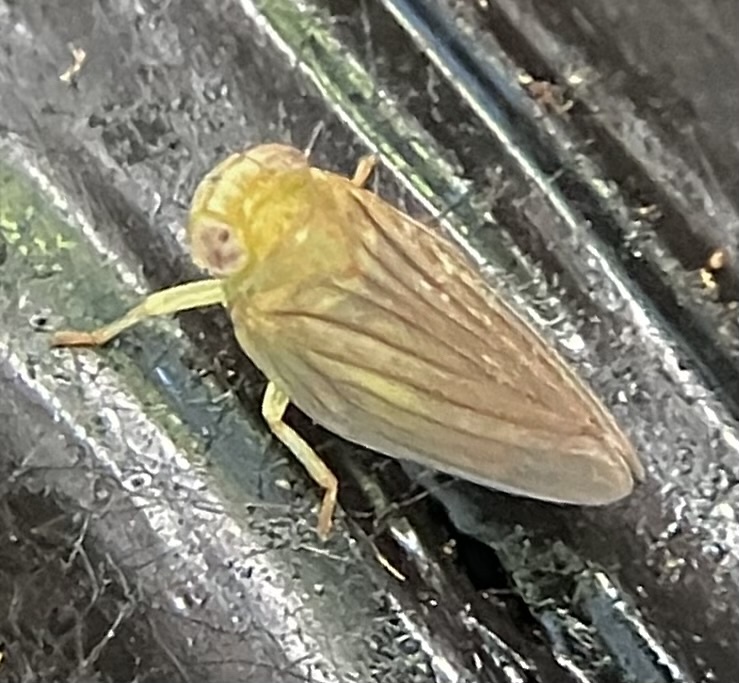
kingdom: Animalia
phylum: Arthropoda
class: Insecta
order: Hemiptera
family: Issidae
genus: Aplos
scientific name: Aplos simplex
